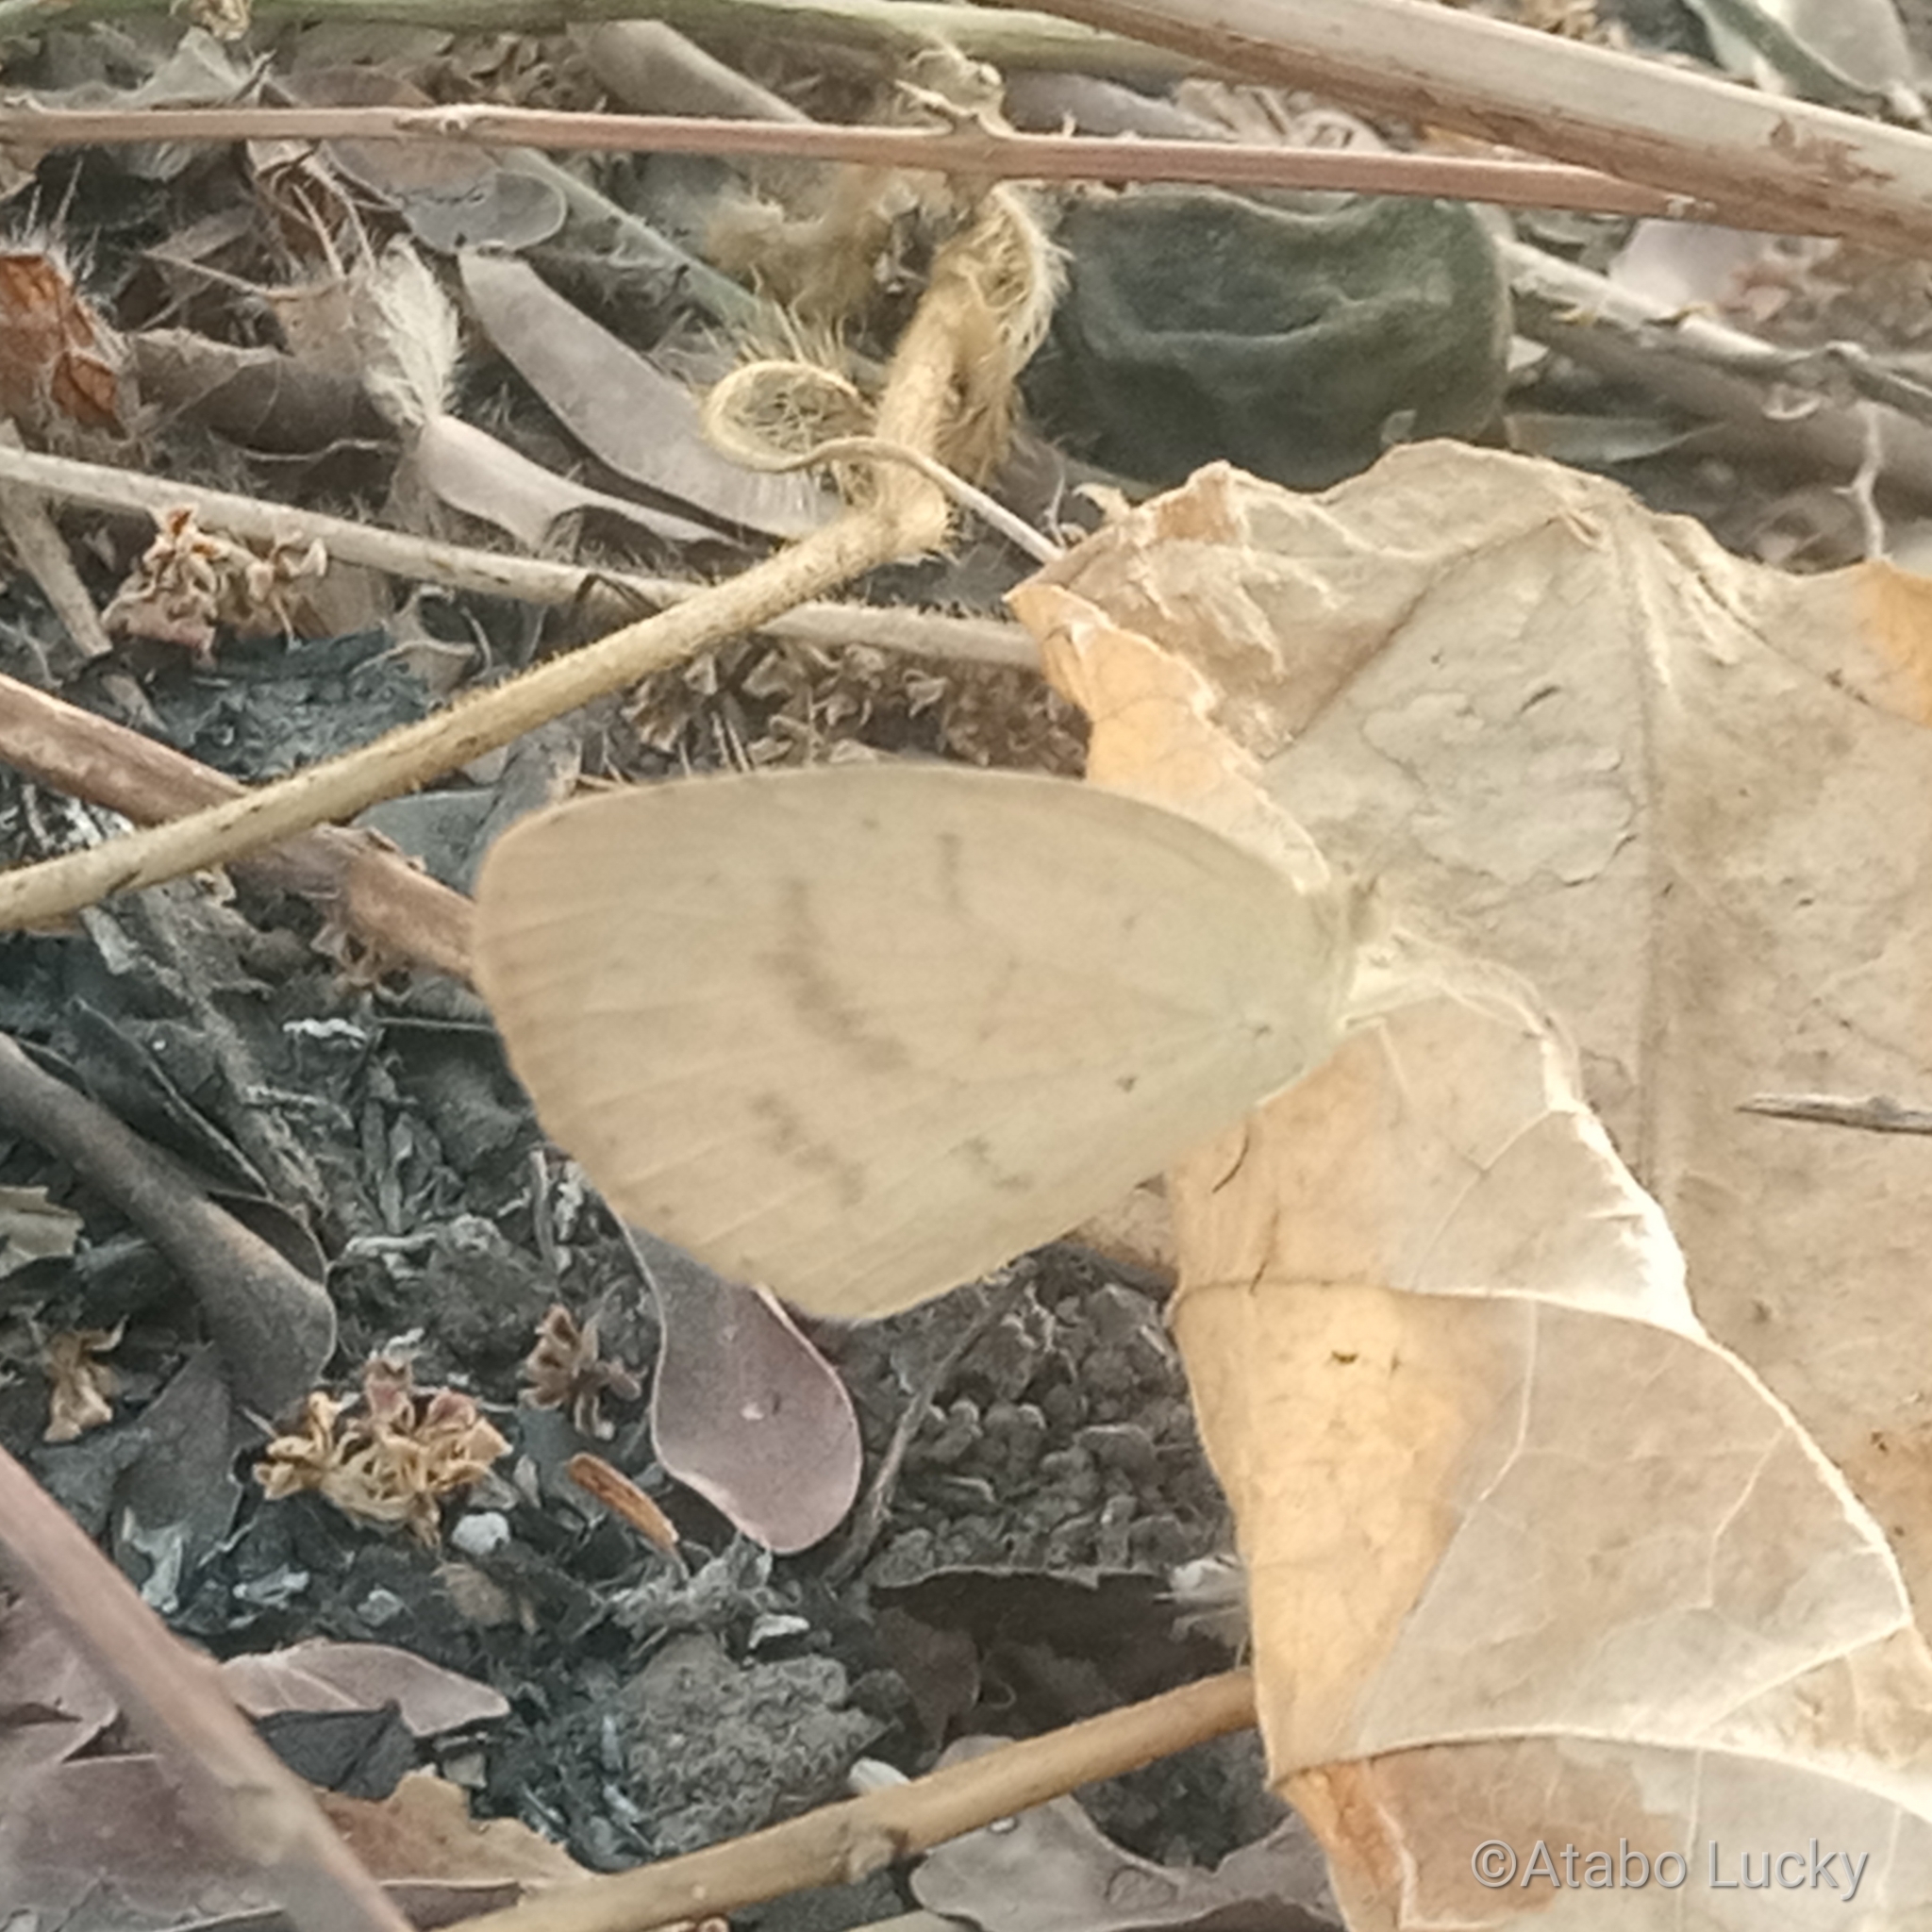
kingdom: Animalia
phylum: Arthropoda
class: Insecta
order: Lepidoptera
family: Pieridae
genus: Eurema
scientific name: Eurema brigitta
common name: Small grass yellow
